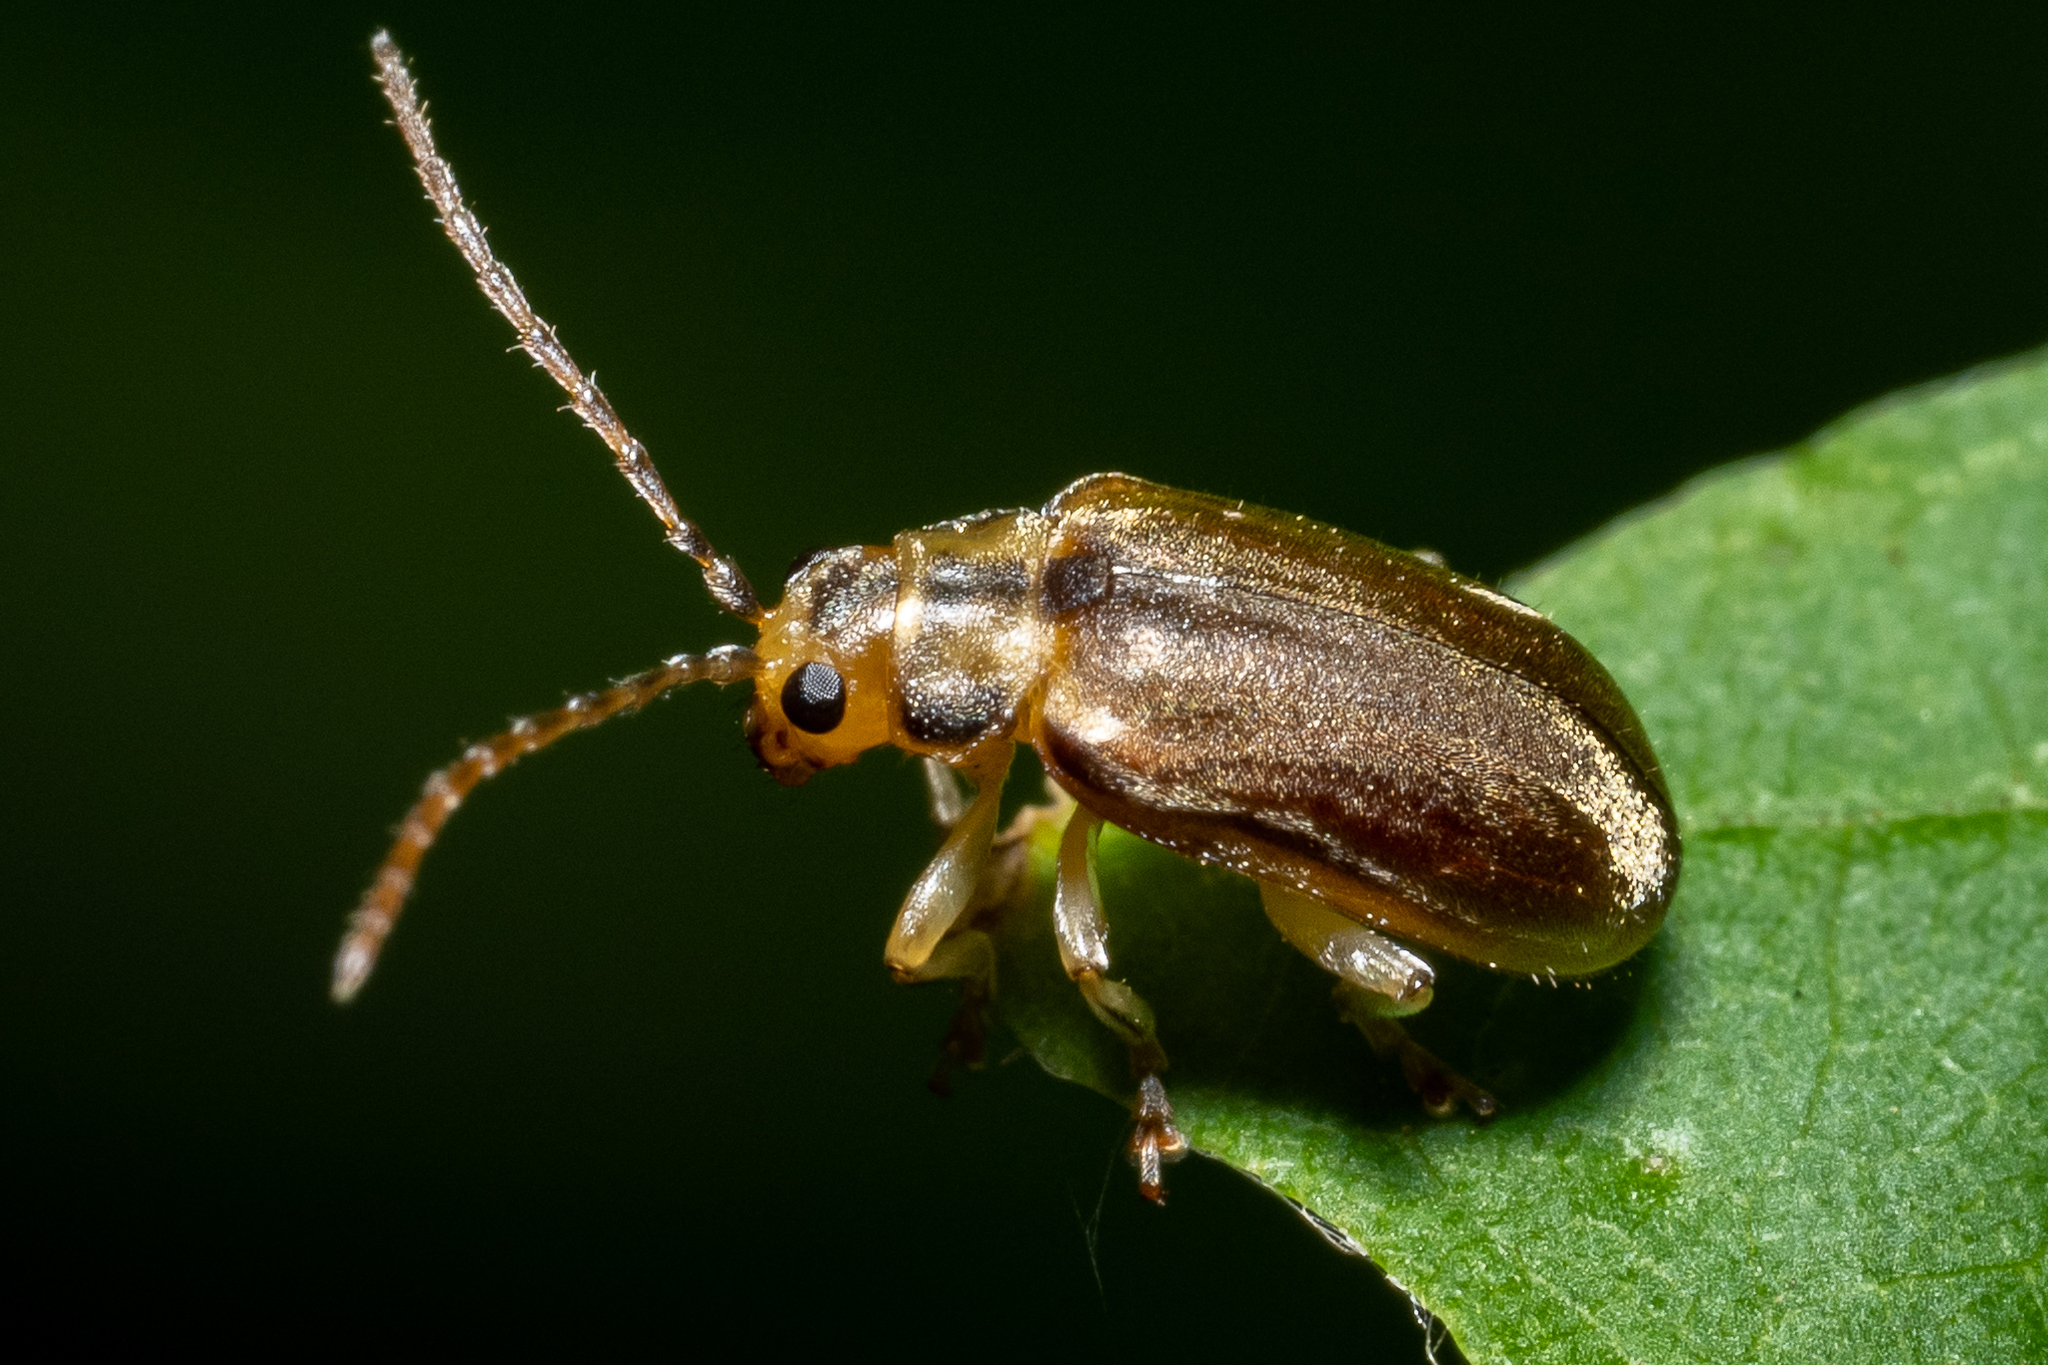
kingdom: Animalia
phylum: Arthropoda
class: Insecta
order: Coleoptera
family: Chrysomelidae
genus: Pyrrhalta
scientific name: Pyrrhalta viburni
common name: Guelder-rose leaf beetle
